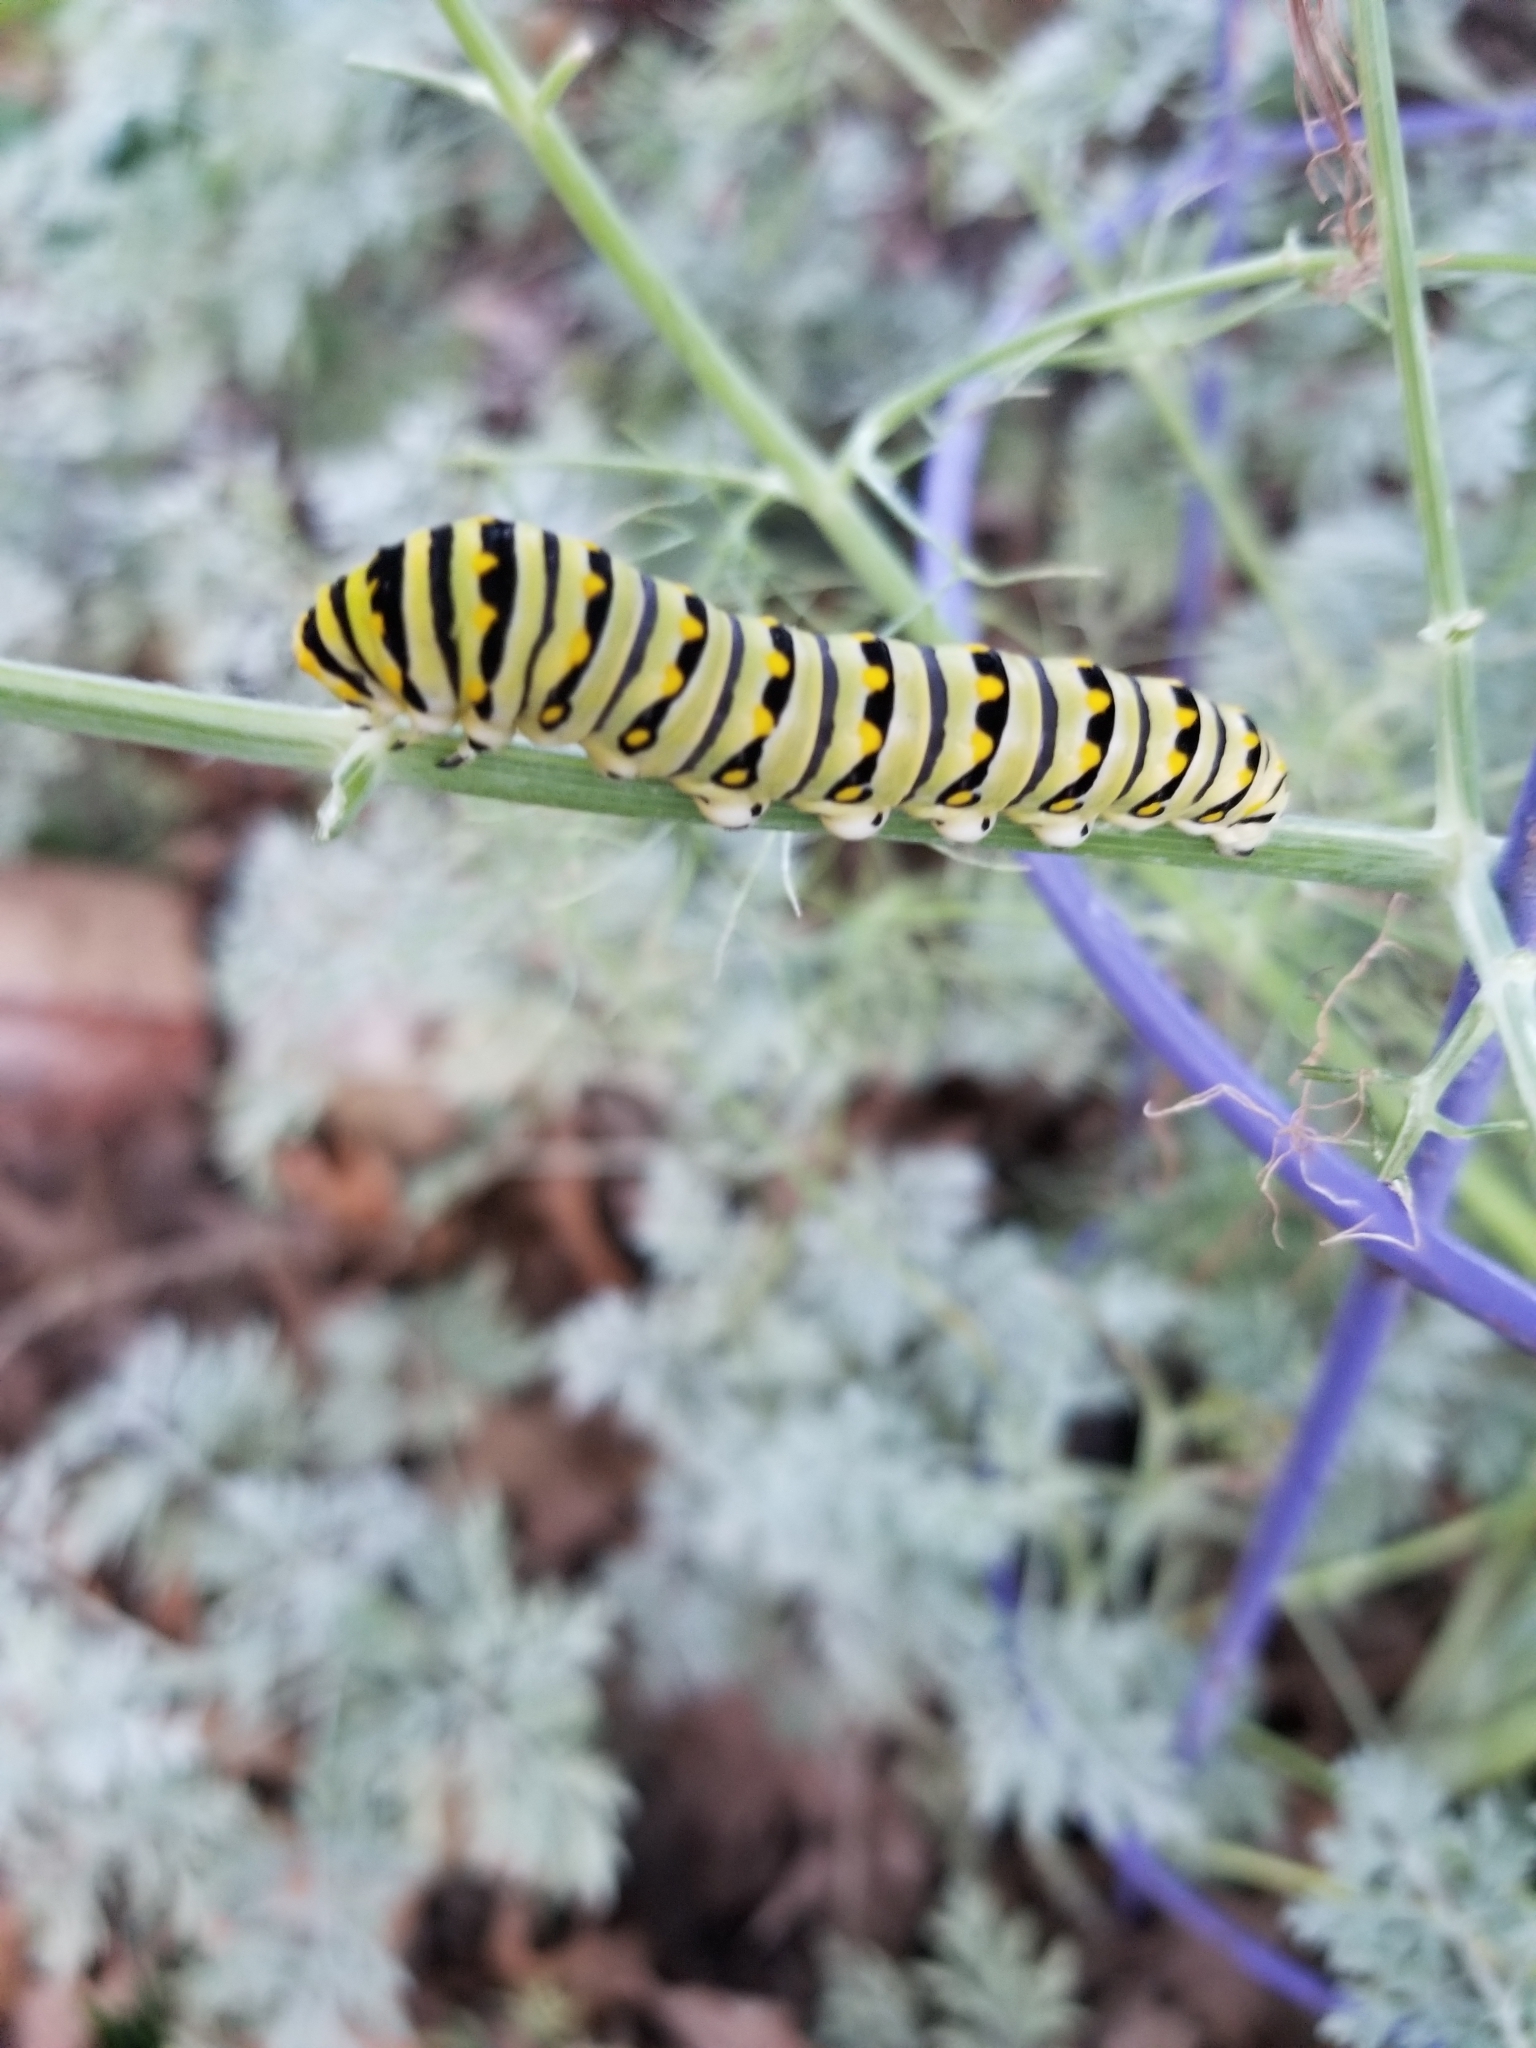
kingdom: Animalia
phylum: Arthropoda
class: Insecta
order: Lepidoptera
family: Papilionidae
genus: Papilio
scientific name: Papilio polyxenes
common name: Black swallowtail
